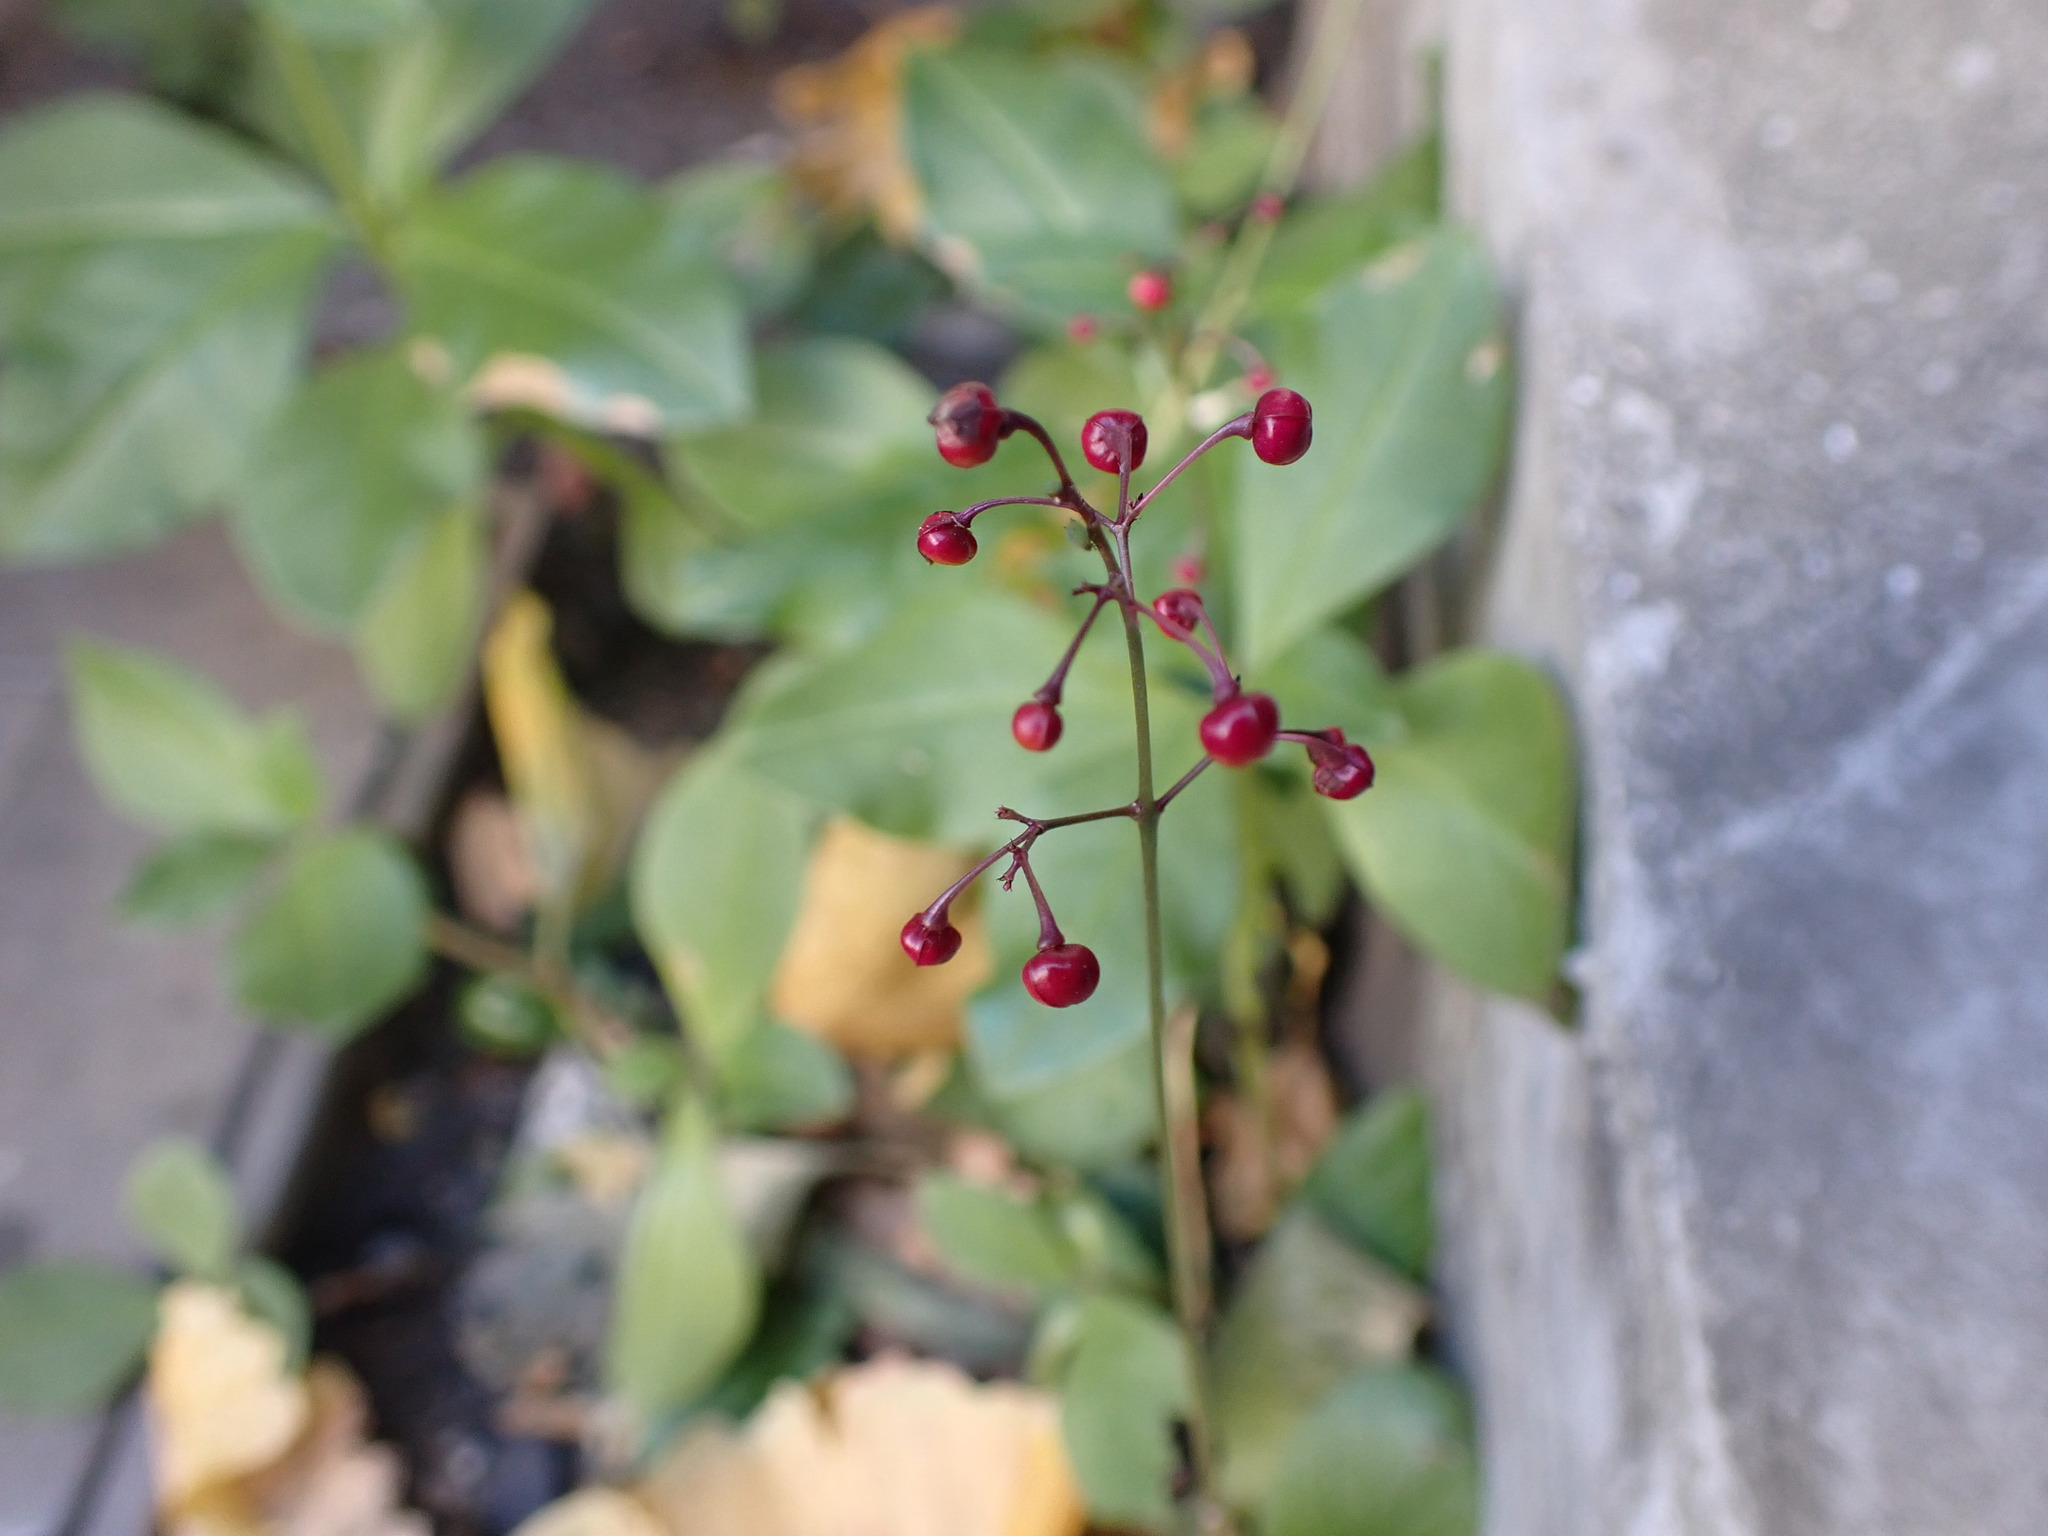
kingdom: Plantae
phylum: Tracheophyta
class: Magnoliopsida
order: Caryophyllales
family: Talinaceae
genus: Talinum
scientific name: Talinum paniculatum
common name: Jewels of opar
